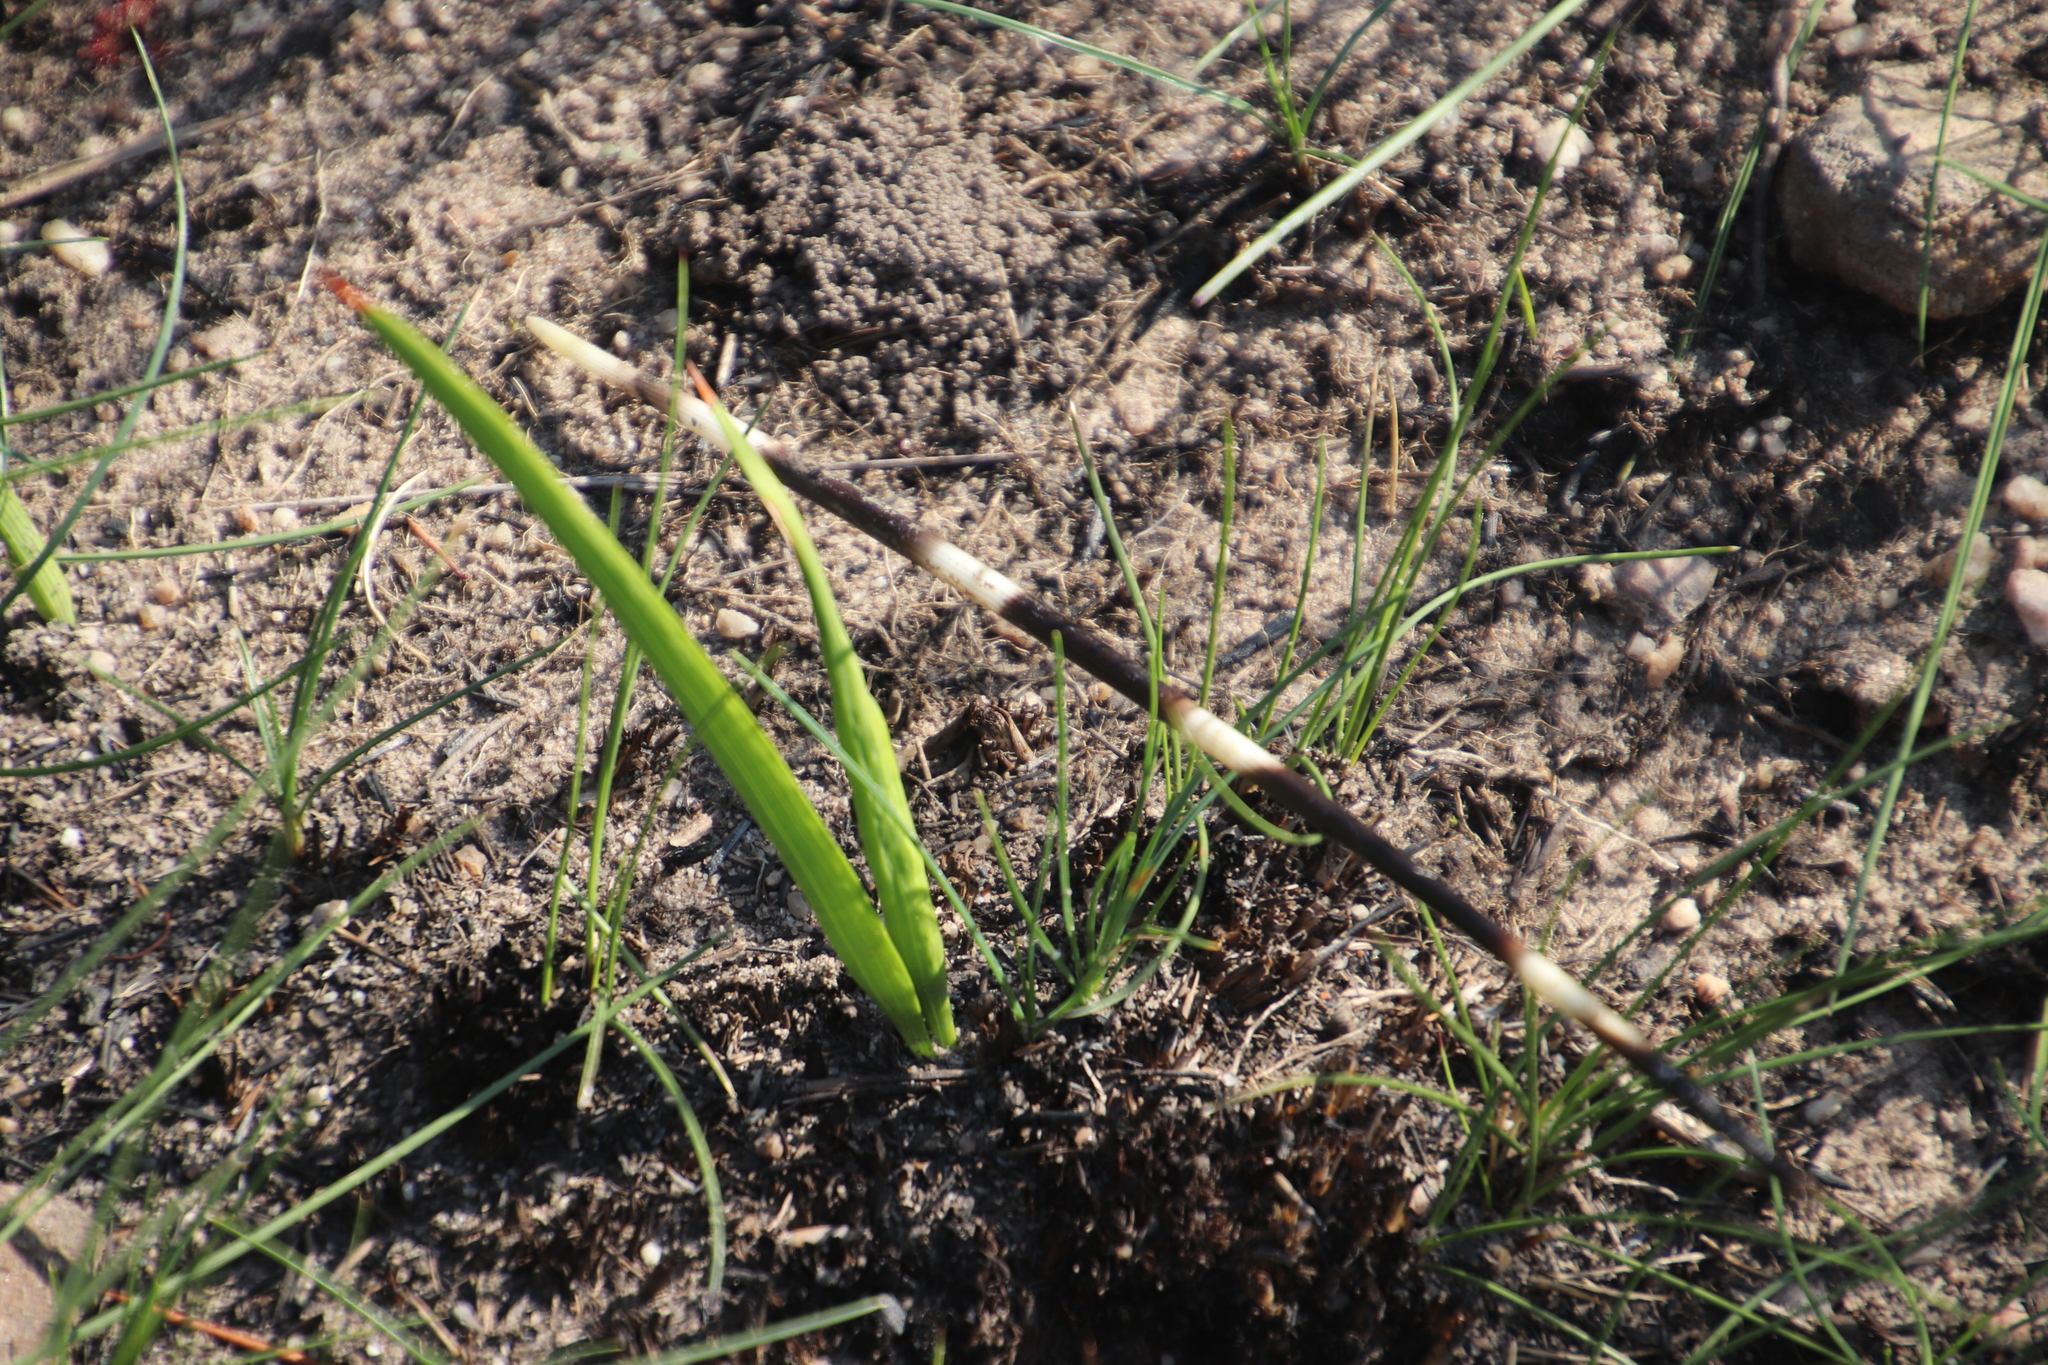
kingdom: Animalia
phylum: Chordata
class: Mammalia
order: Rodentia
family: Hystricidae
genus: Hystrix
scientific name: Hystrix africaeaustralis
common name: Cape porcupine
